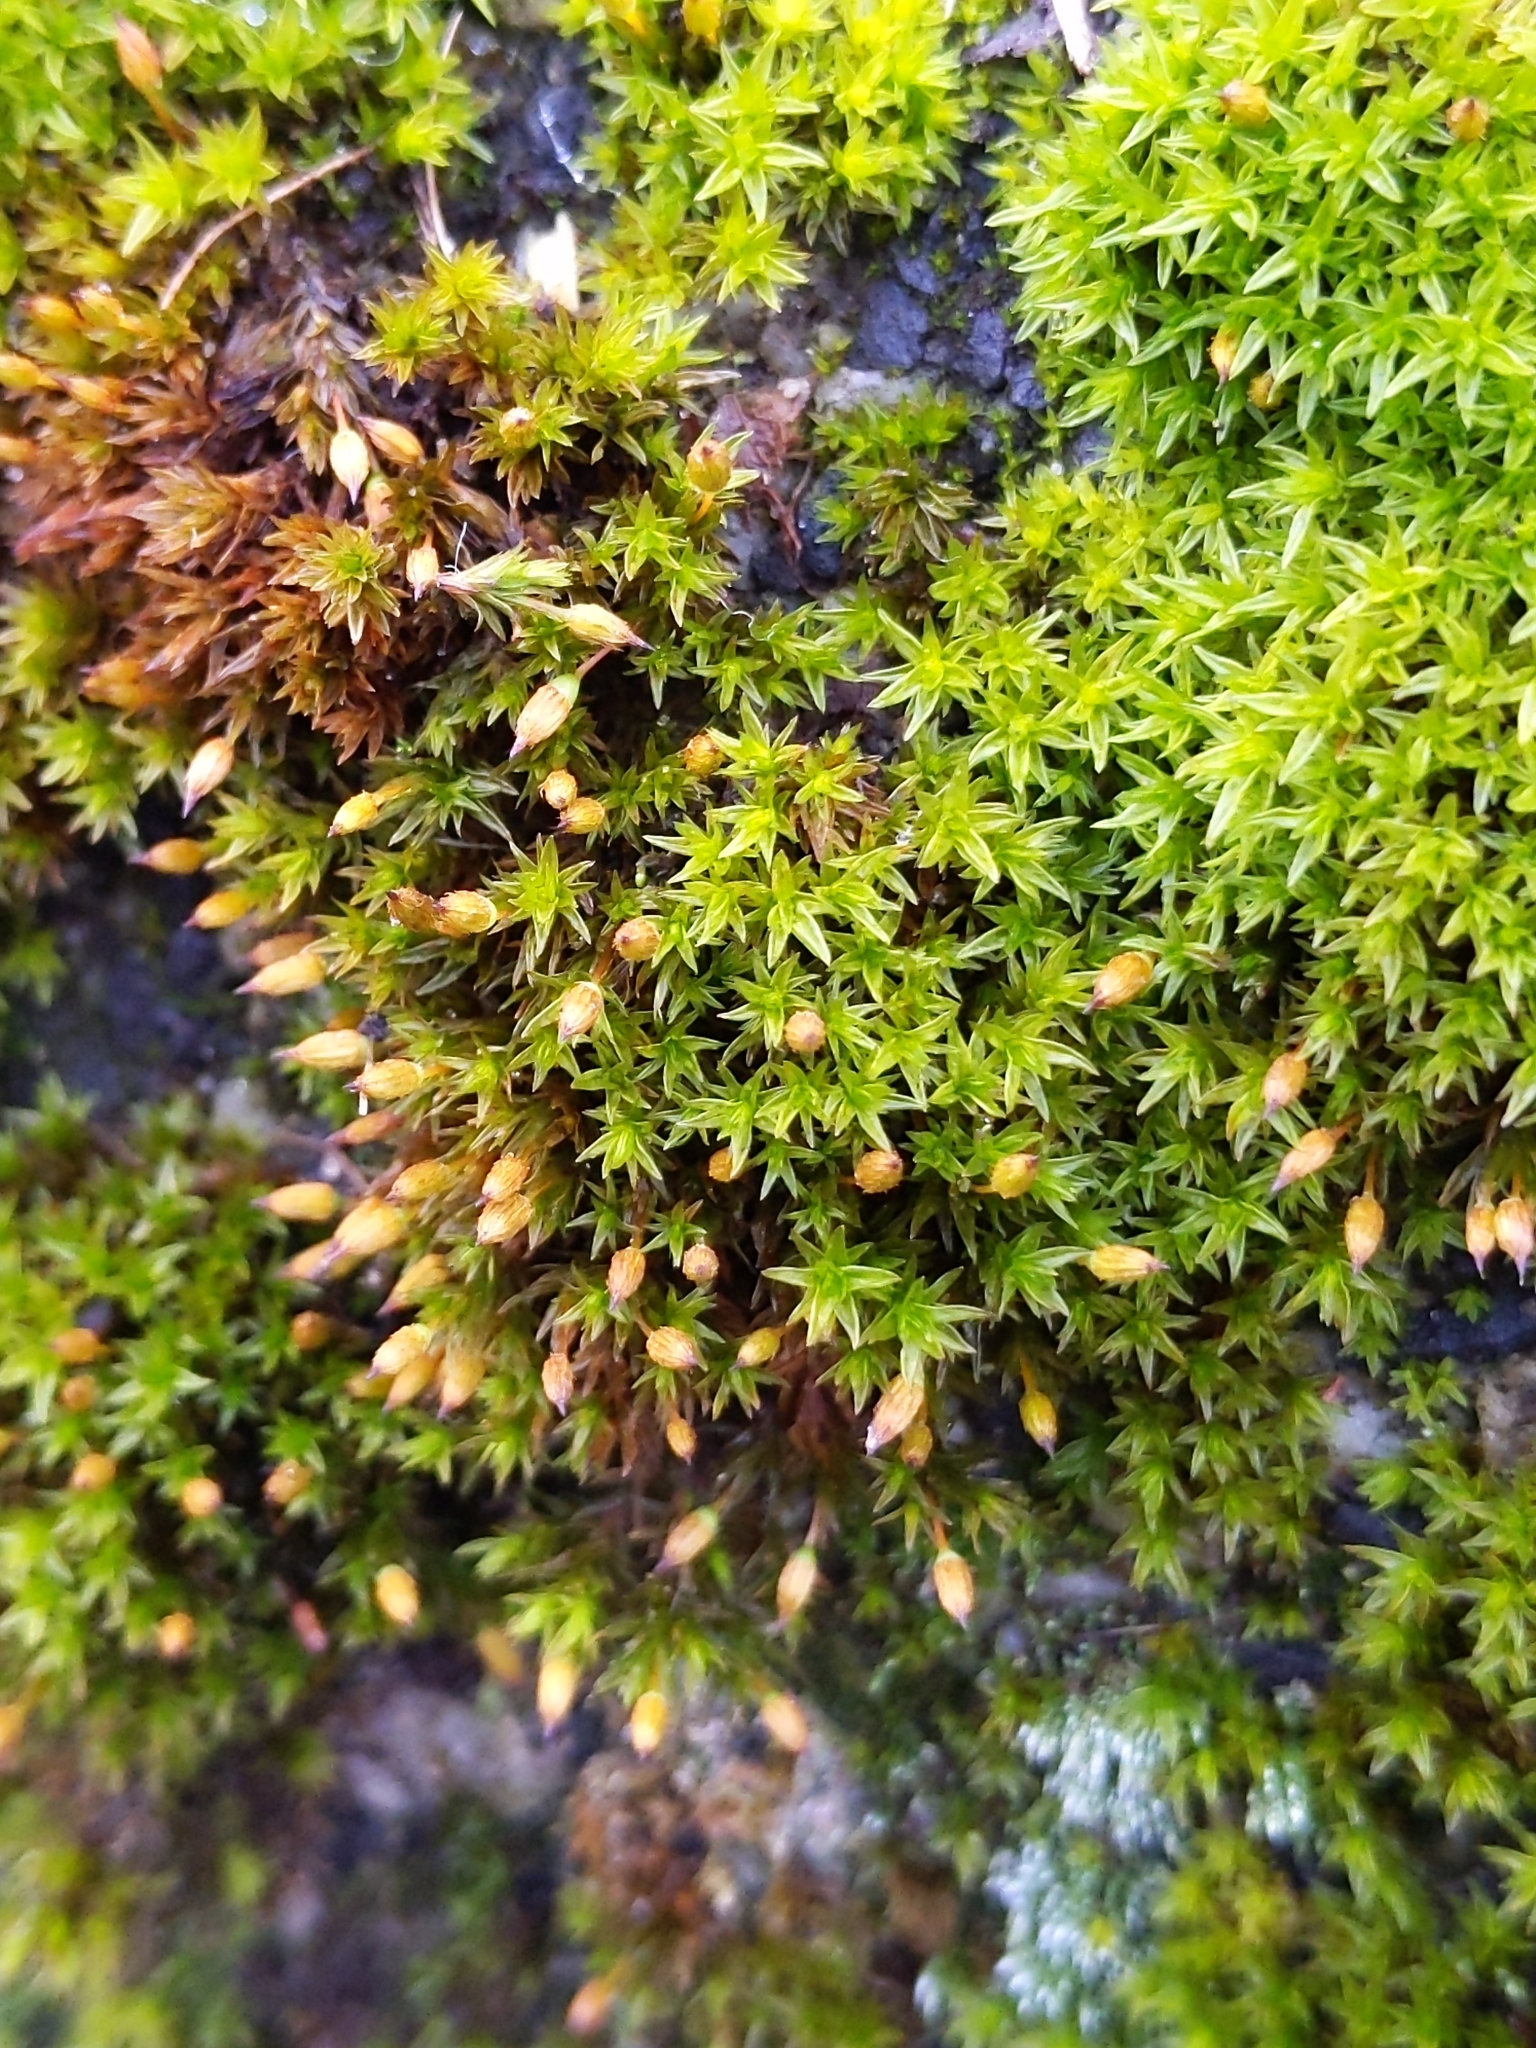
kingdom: Plantae
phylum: Bryophyta
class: Bryopsida
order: Orthotrichales
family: Orthotrichaceae
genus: Orthotrichum
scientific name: Orthotrichum anomalum
